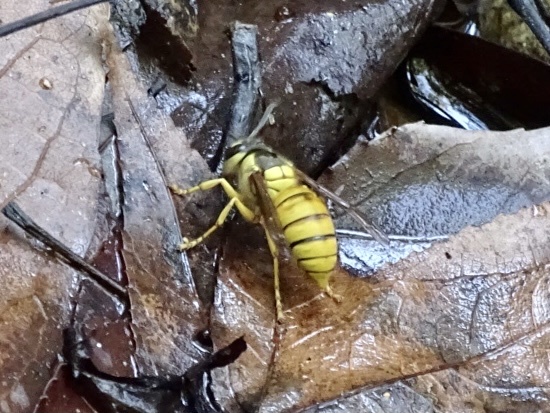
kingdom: Animalia
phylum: Arthropoda
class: Insecta
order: Hymenoptera
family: Vespidae
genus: Vespa
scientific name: Vespa bicolor
